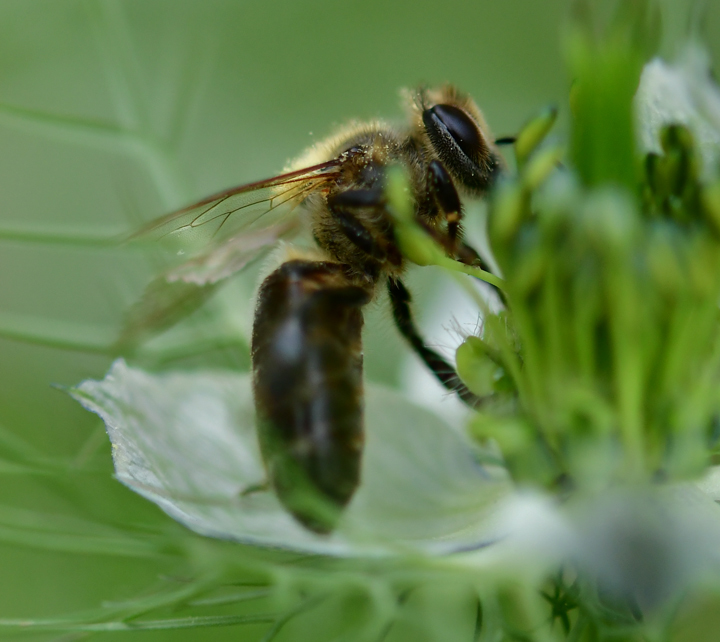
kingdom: Animalia
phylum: Arthropoda
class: Insecta
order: Hymenoptera
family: Apidae
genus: Apis
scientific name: Apis mellifera
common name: Honey bee
